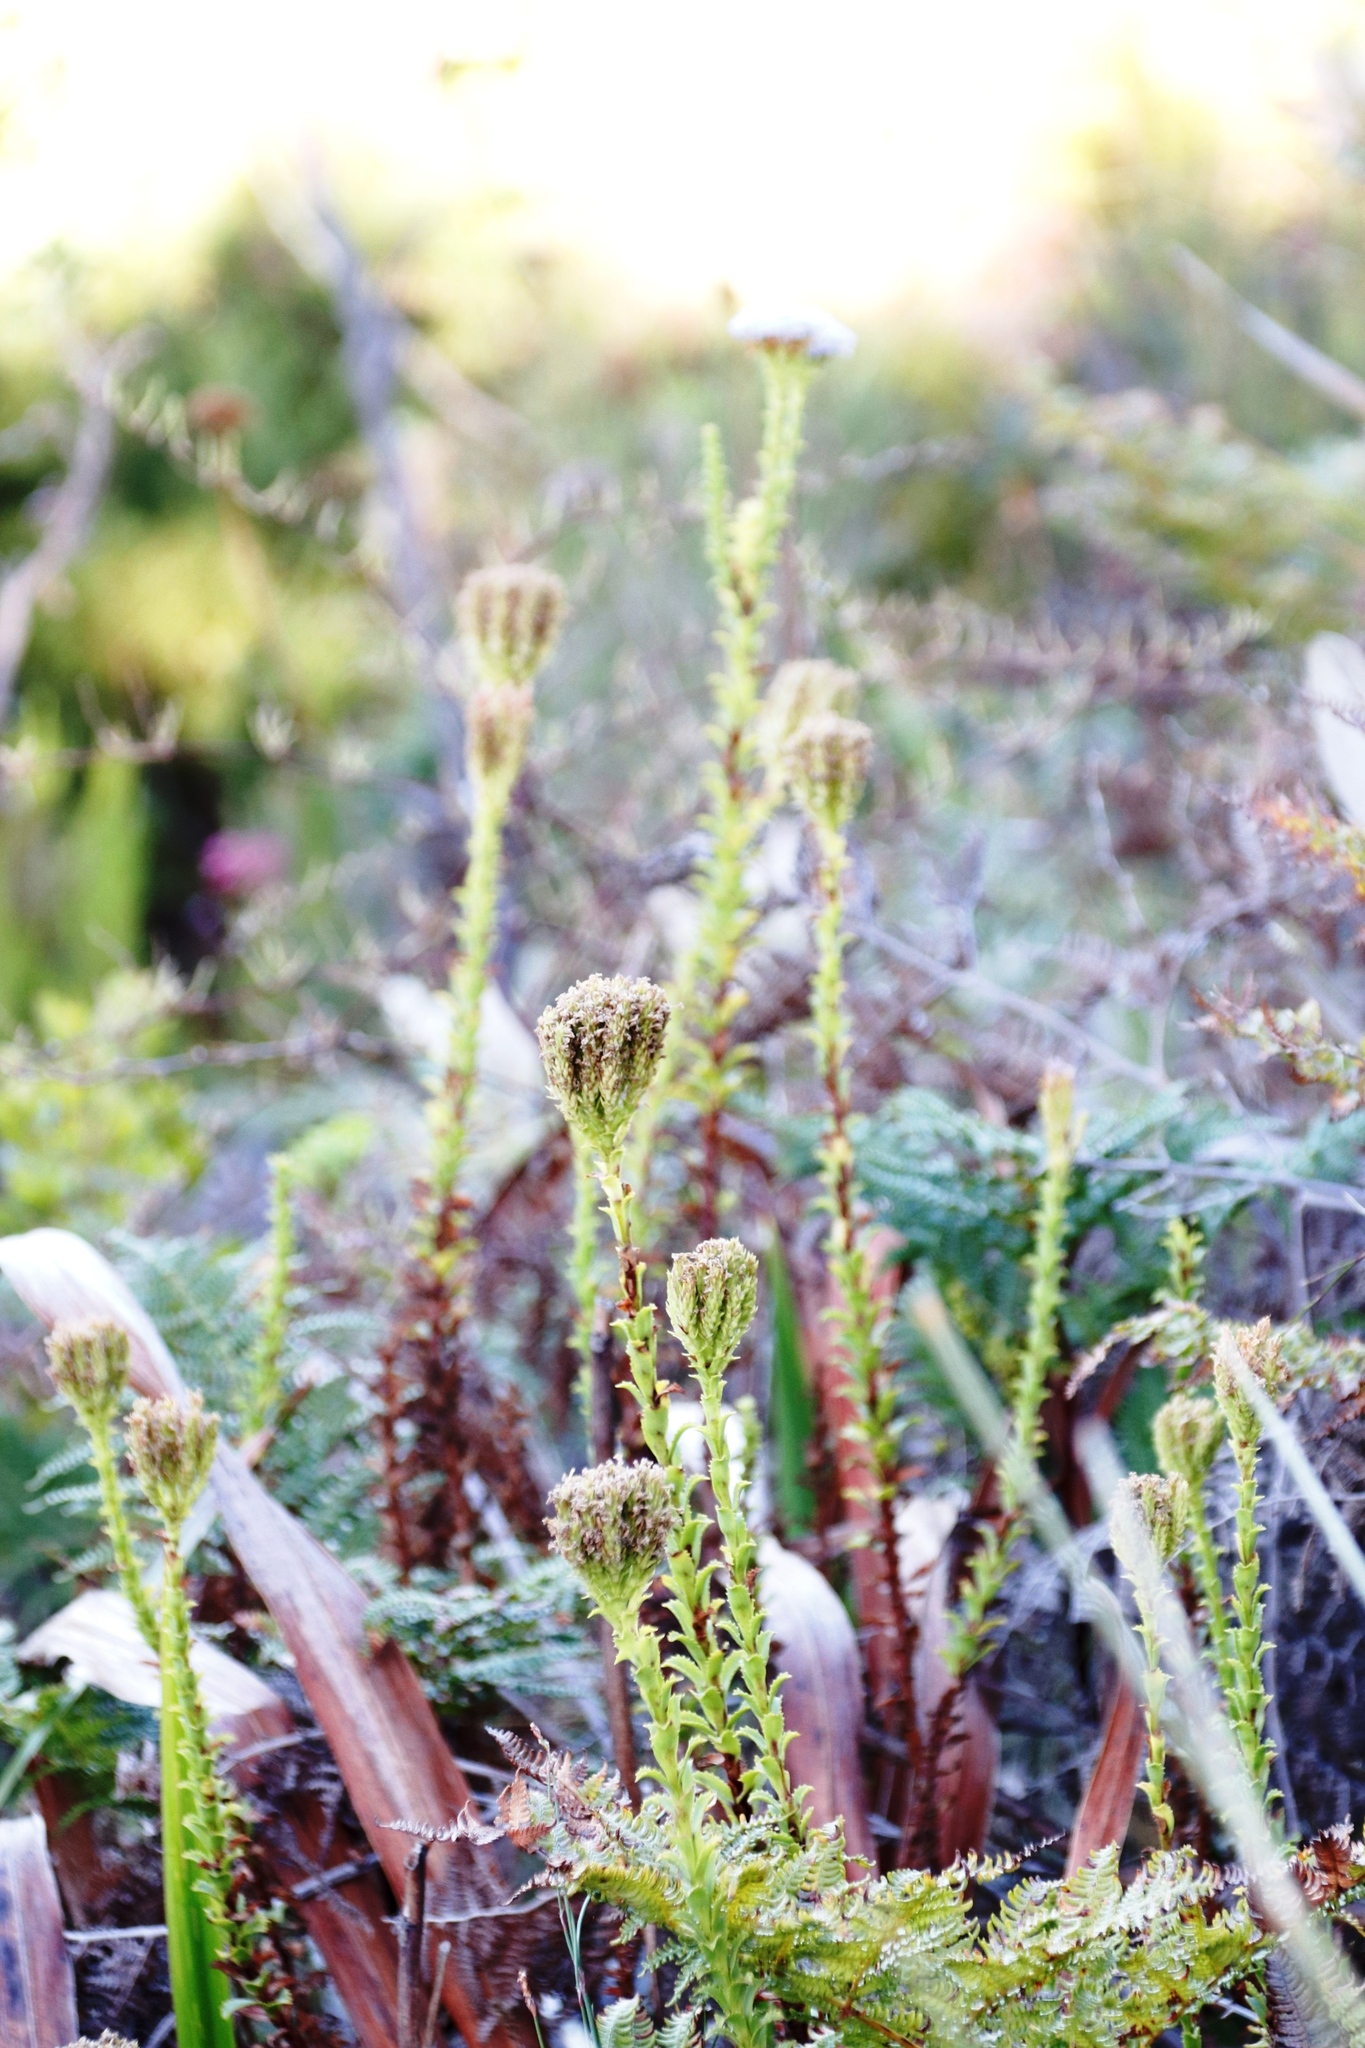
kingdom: Plantae
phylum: Tracheophyta
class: Magnoliopsida
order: Lamiales
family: Scrophulariaceae
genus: Pseudoselago
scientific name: Pseudoselago serrata
